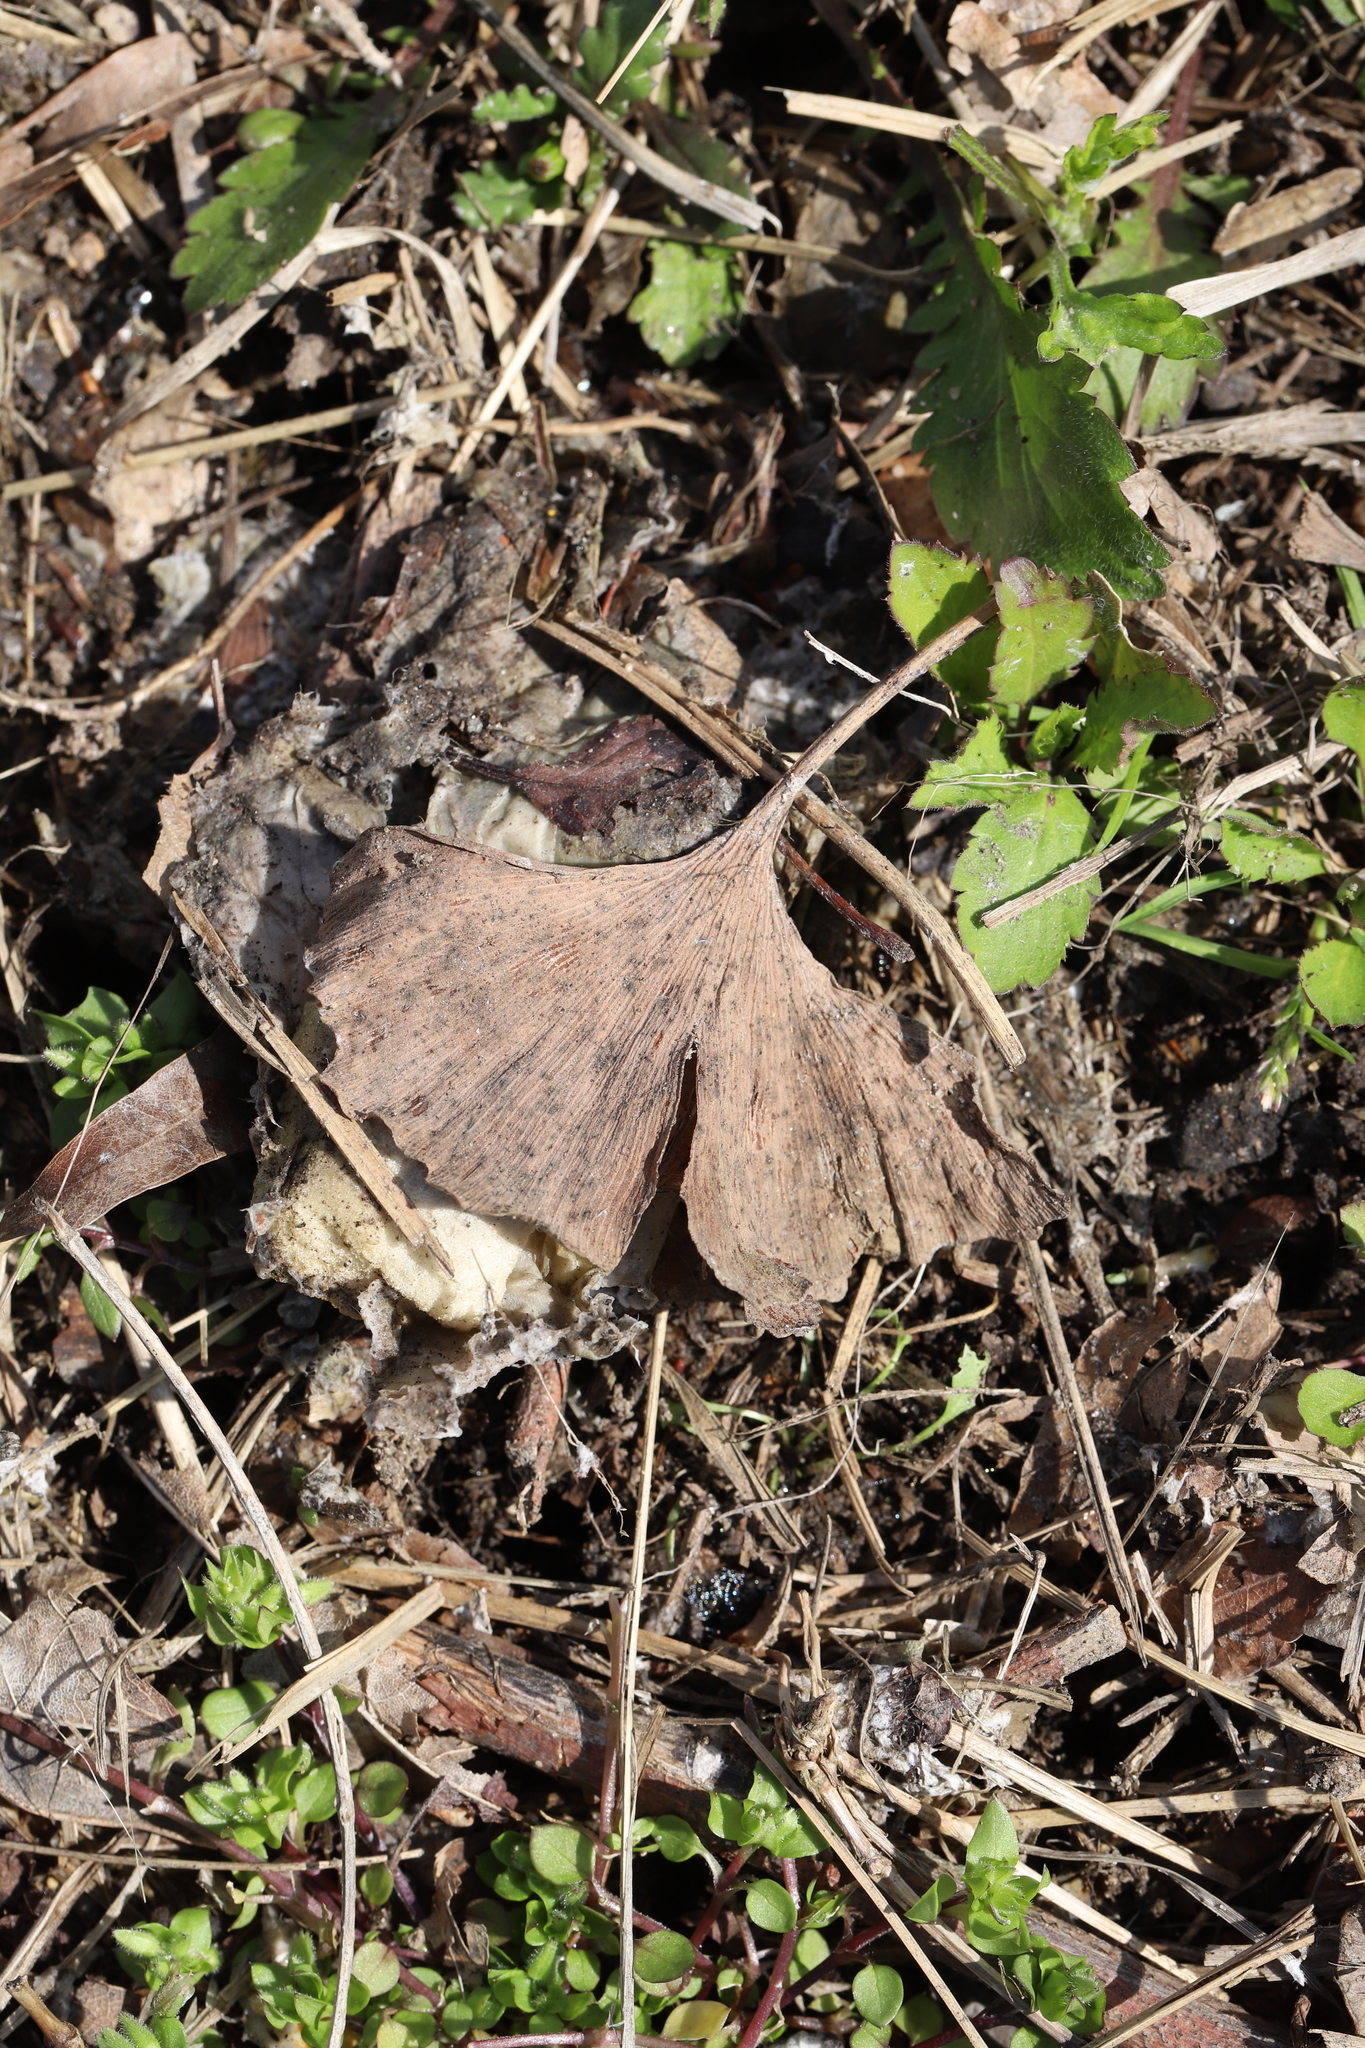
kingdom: Fungi
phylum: Basidiomycota
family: Bartheletiaceae
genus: Bartheletia
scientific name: Bartheletia paradoxa
